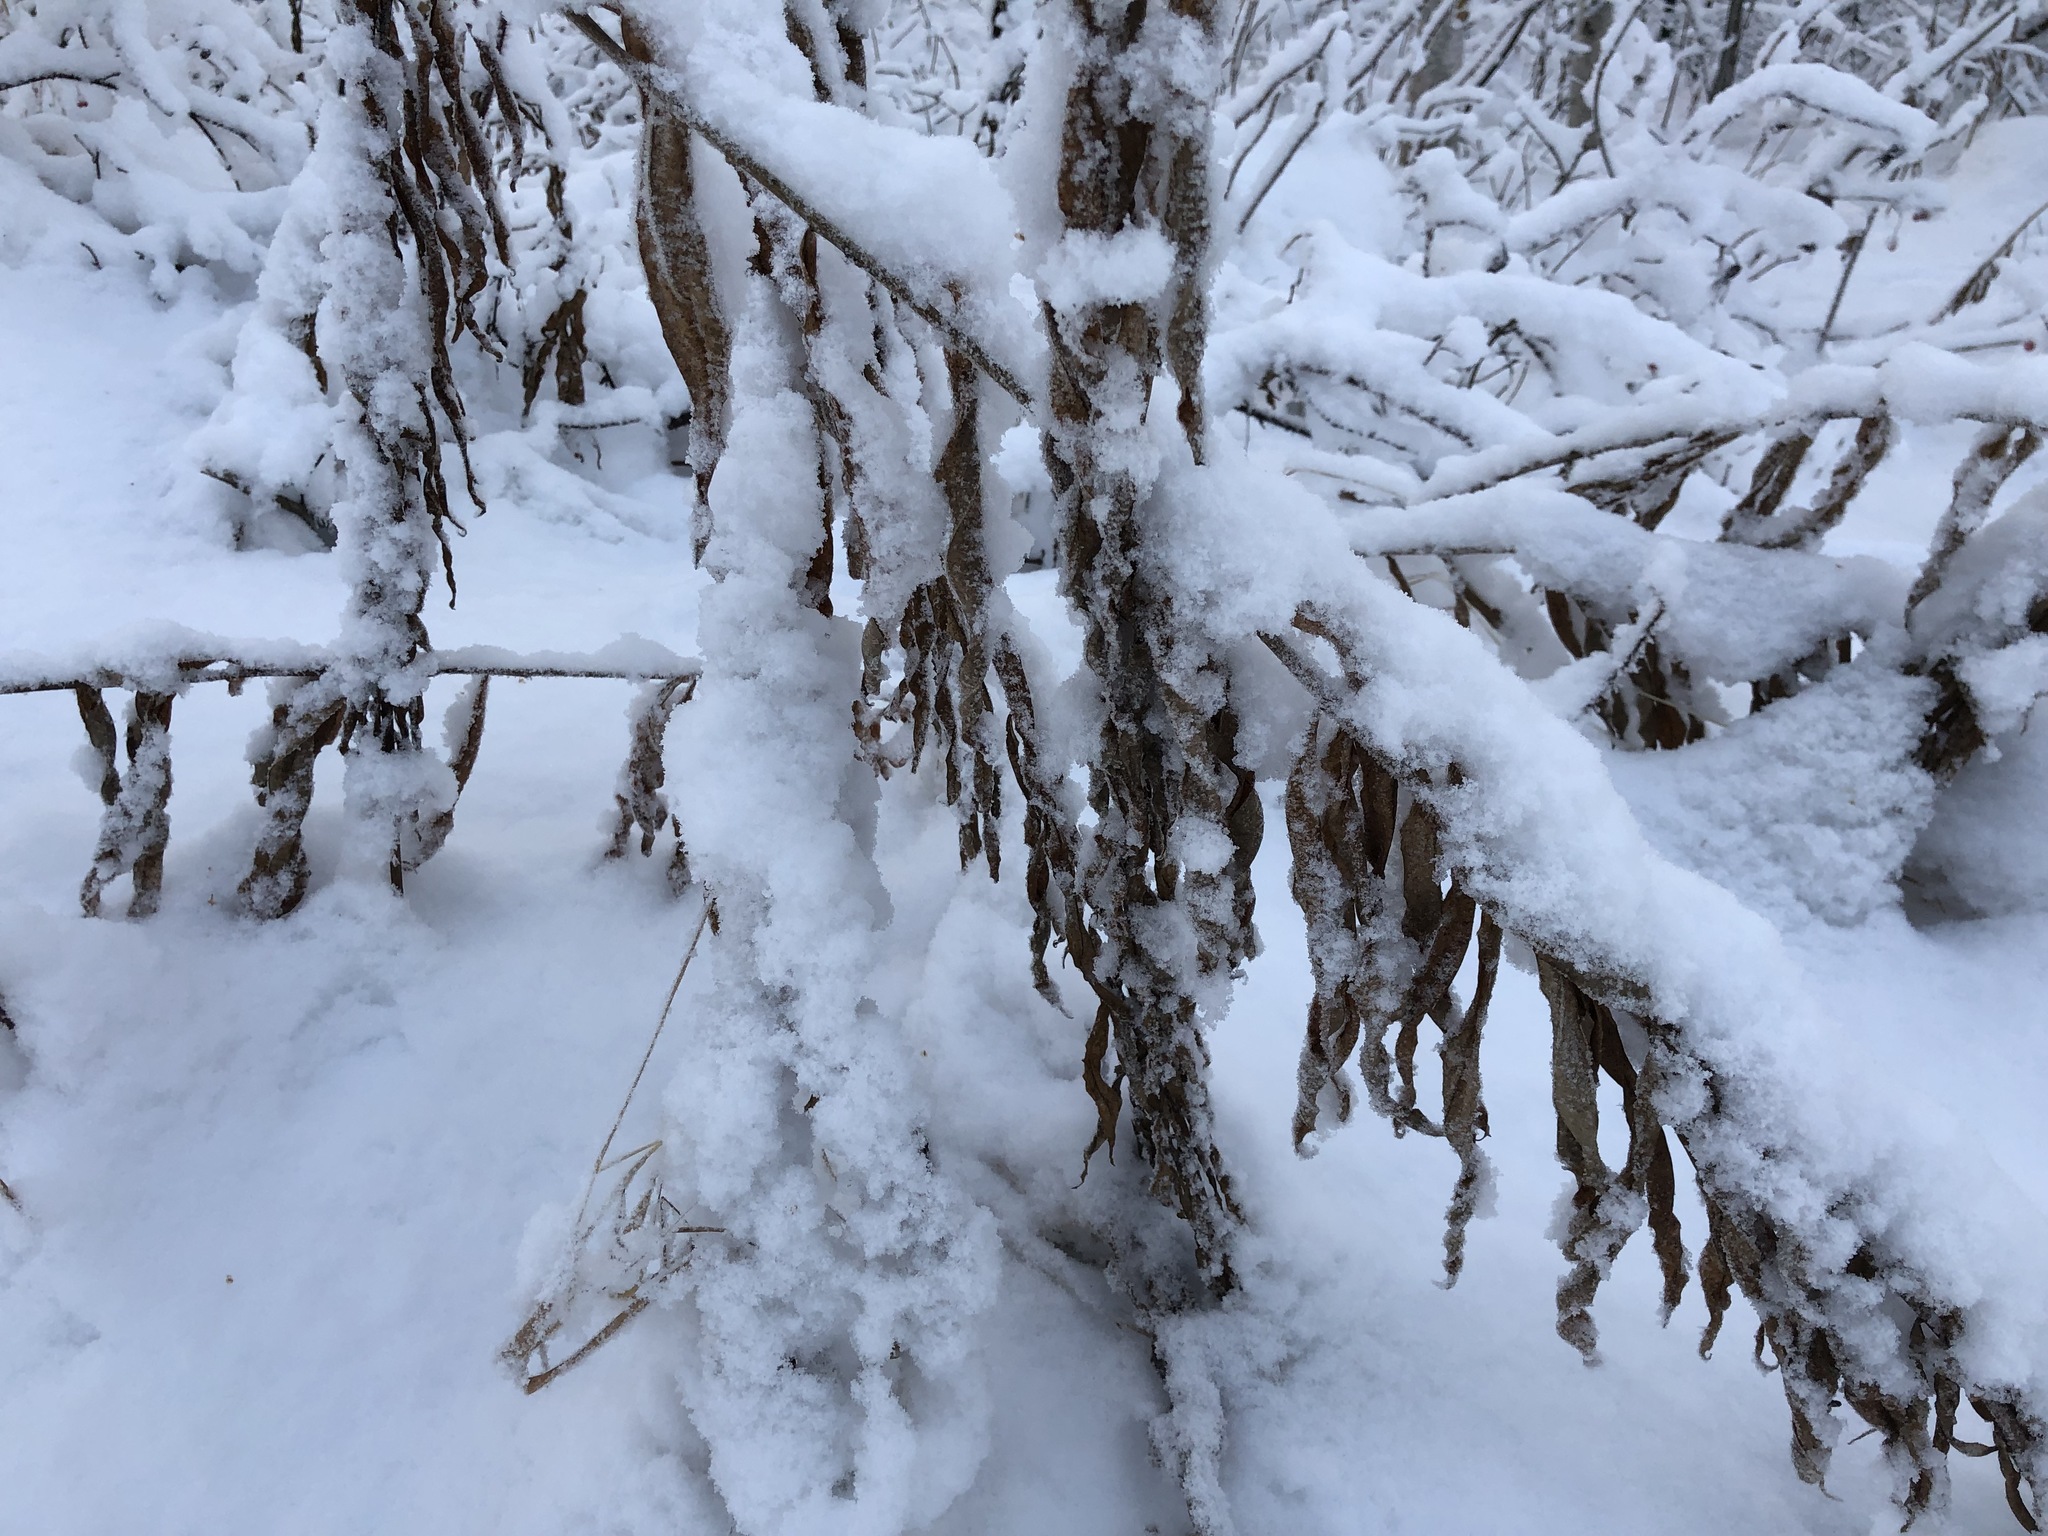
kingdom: Plantae
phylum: Tracheophyta
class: Magnoliopsida
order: Myrtales
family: Onagraceae
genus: Chamaenerion
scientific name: Chamaenerion angustifolium
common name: Fireweed
